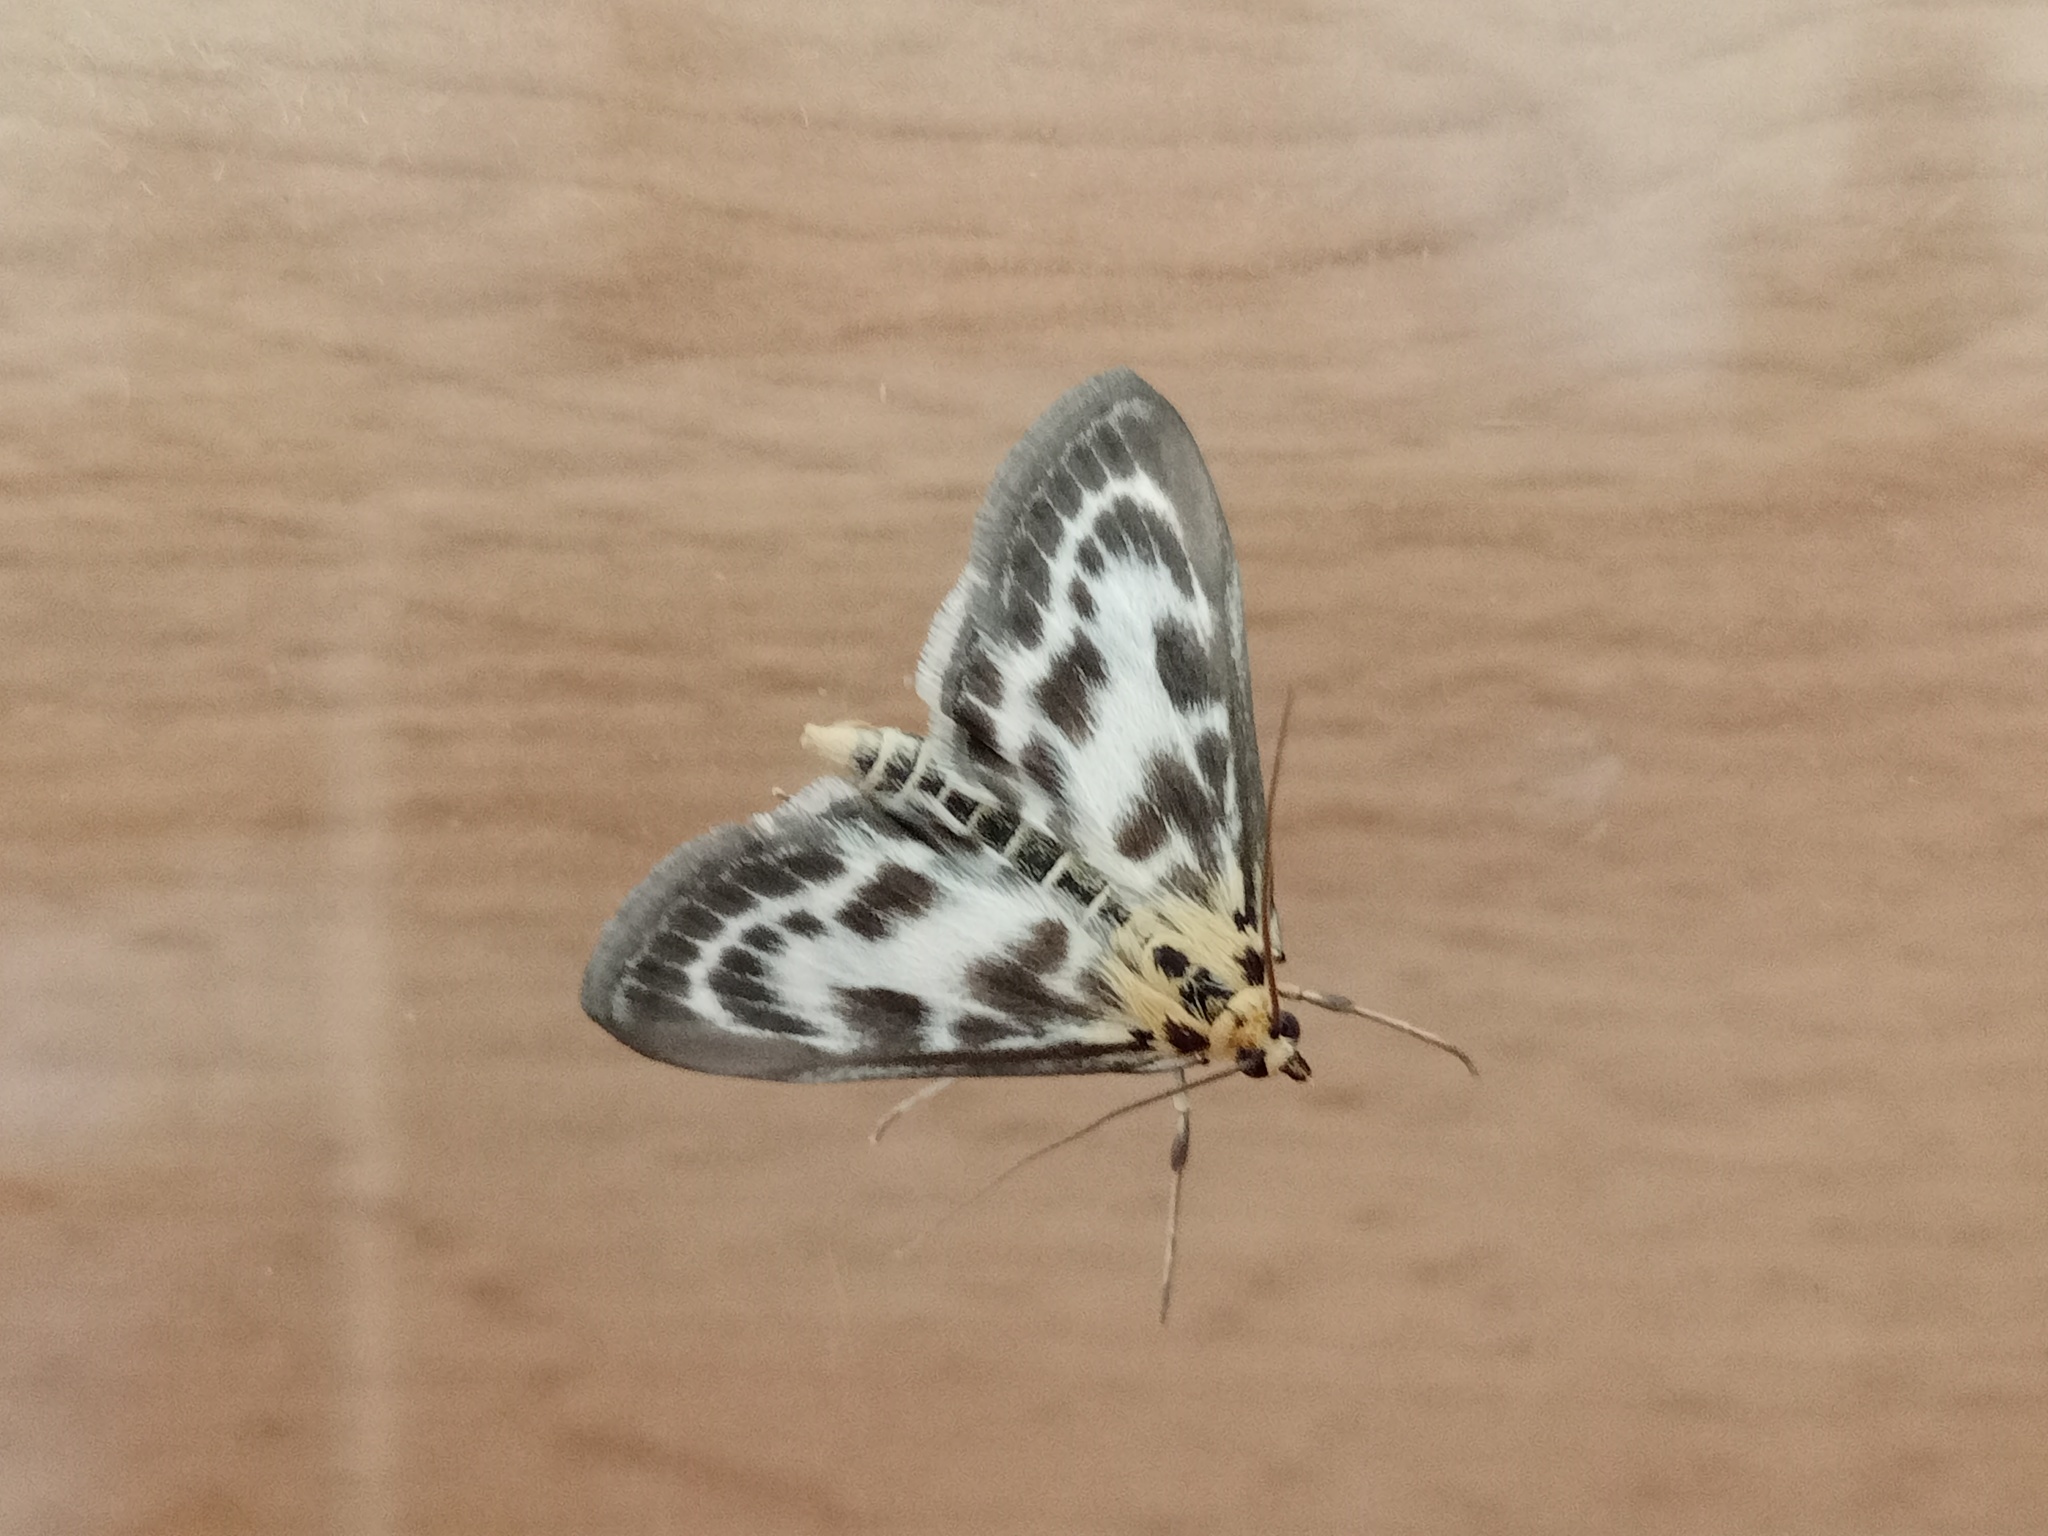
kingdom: Animalia
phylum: Arthropoda
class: Insecta
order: Lepidoptera
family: Crambidae
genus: Anania
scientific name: Anania hortulata
